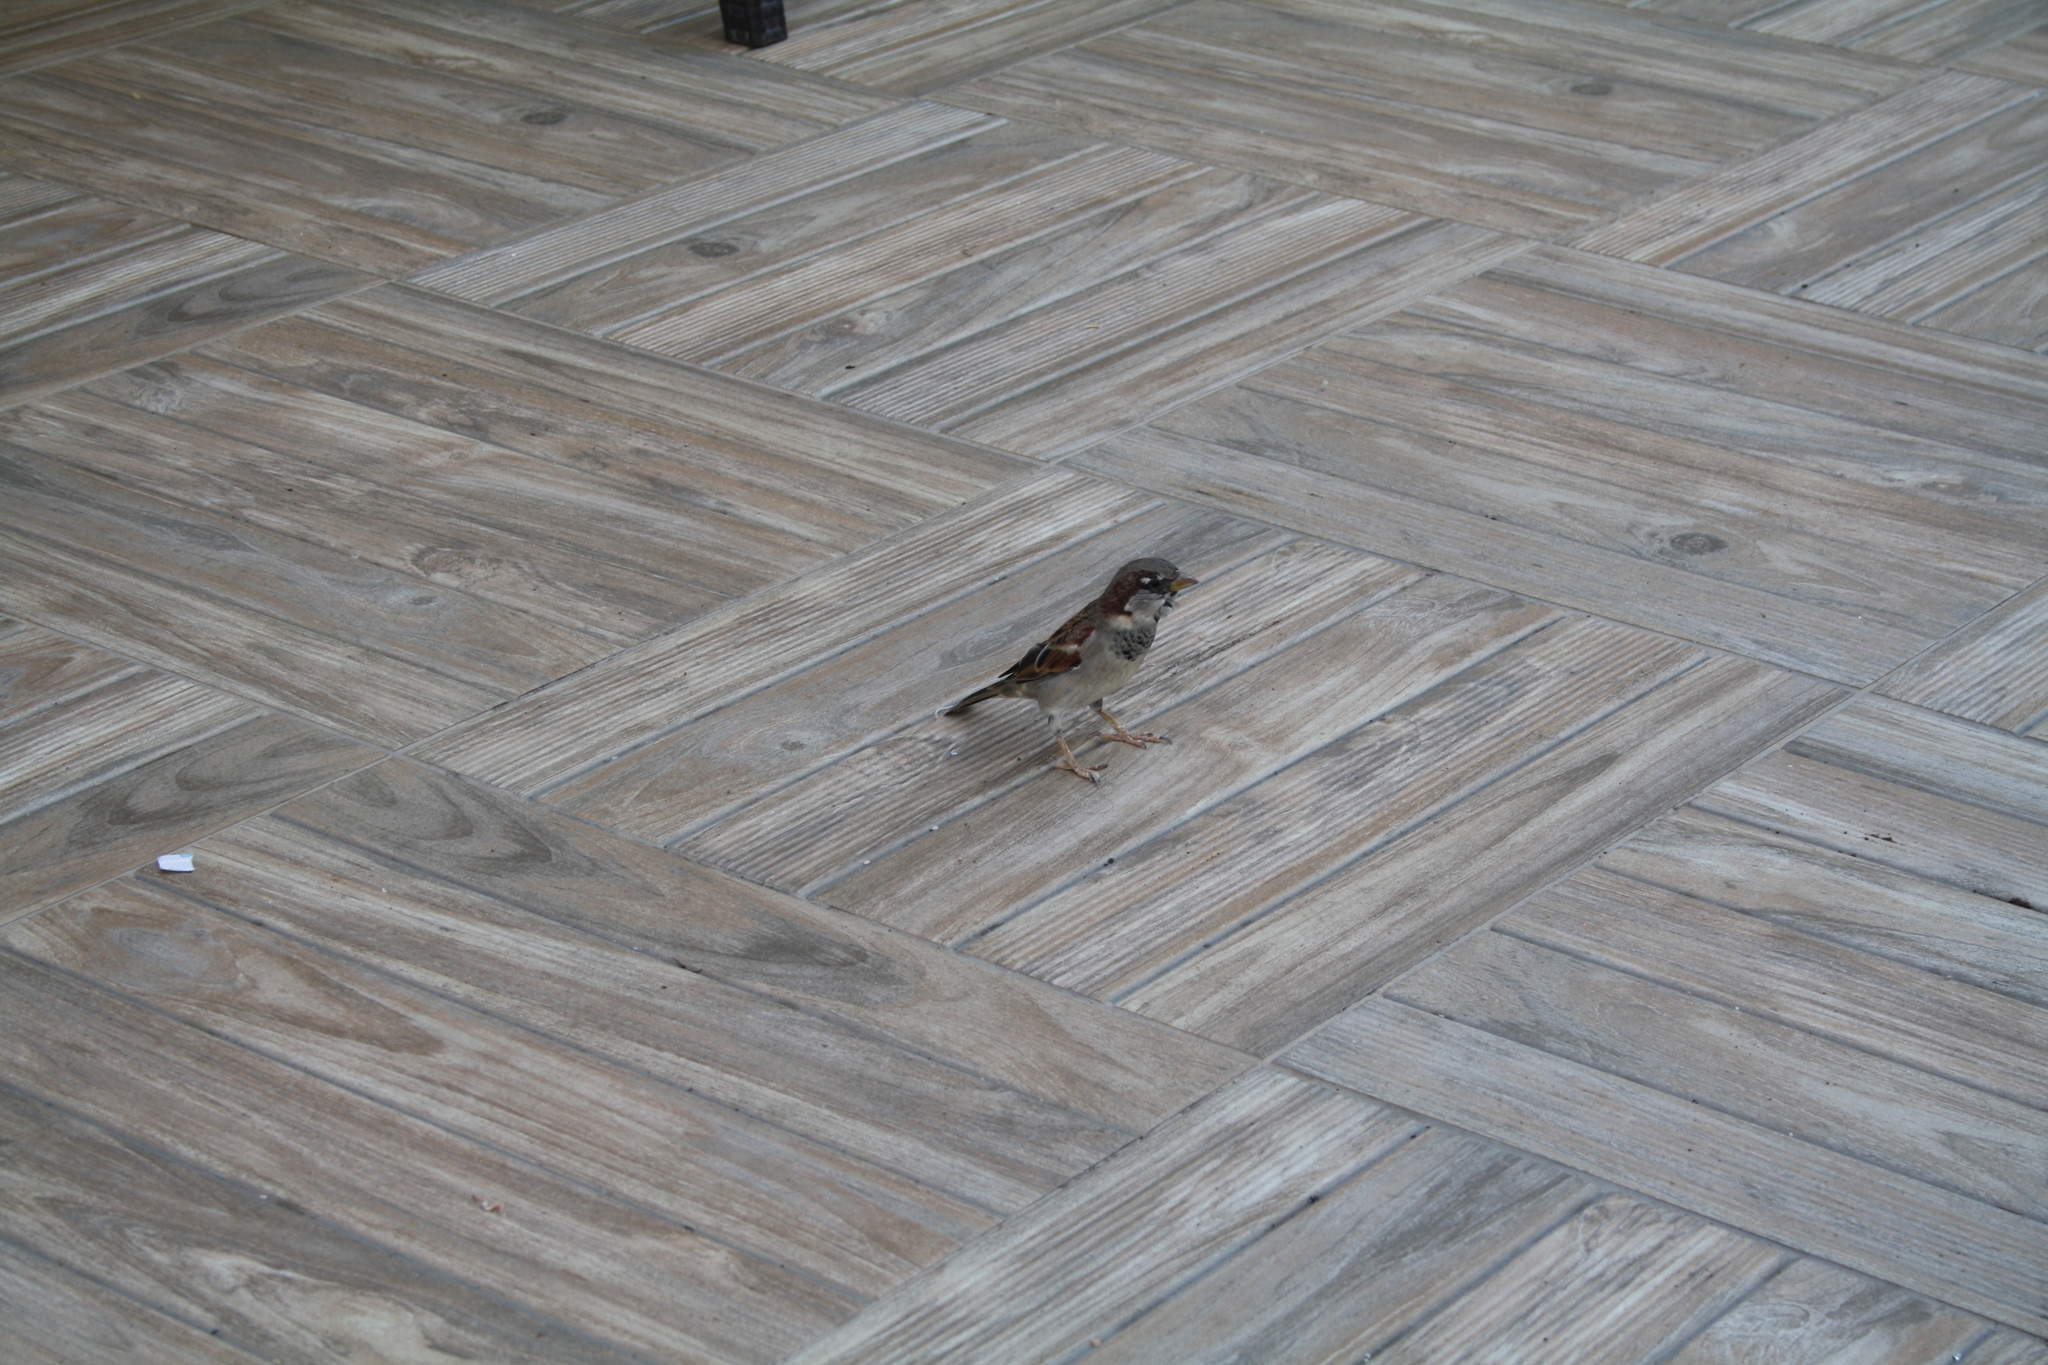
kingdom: Animalia
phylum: Chordata
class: Aves
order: Passeriformes
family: Passeridae
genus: Passer
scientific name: Passer domesticus
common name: House sparrow
